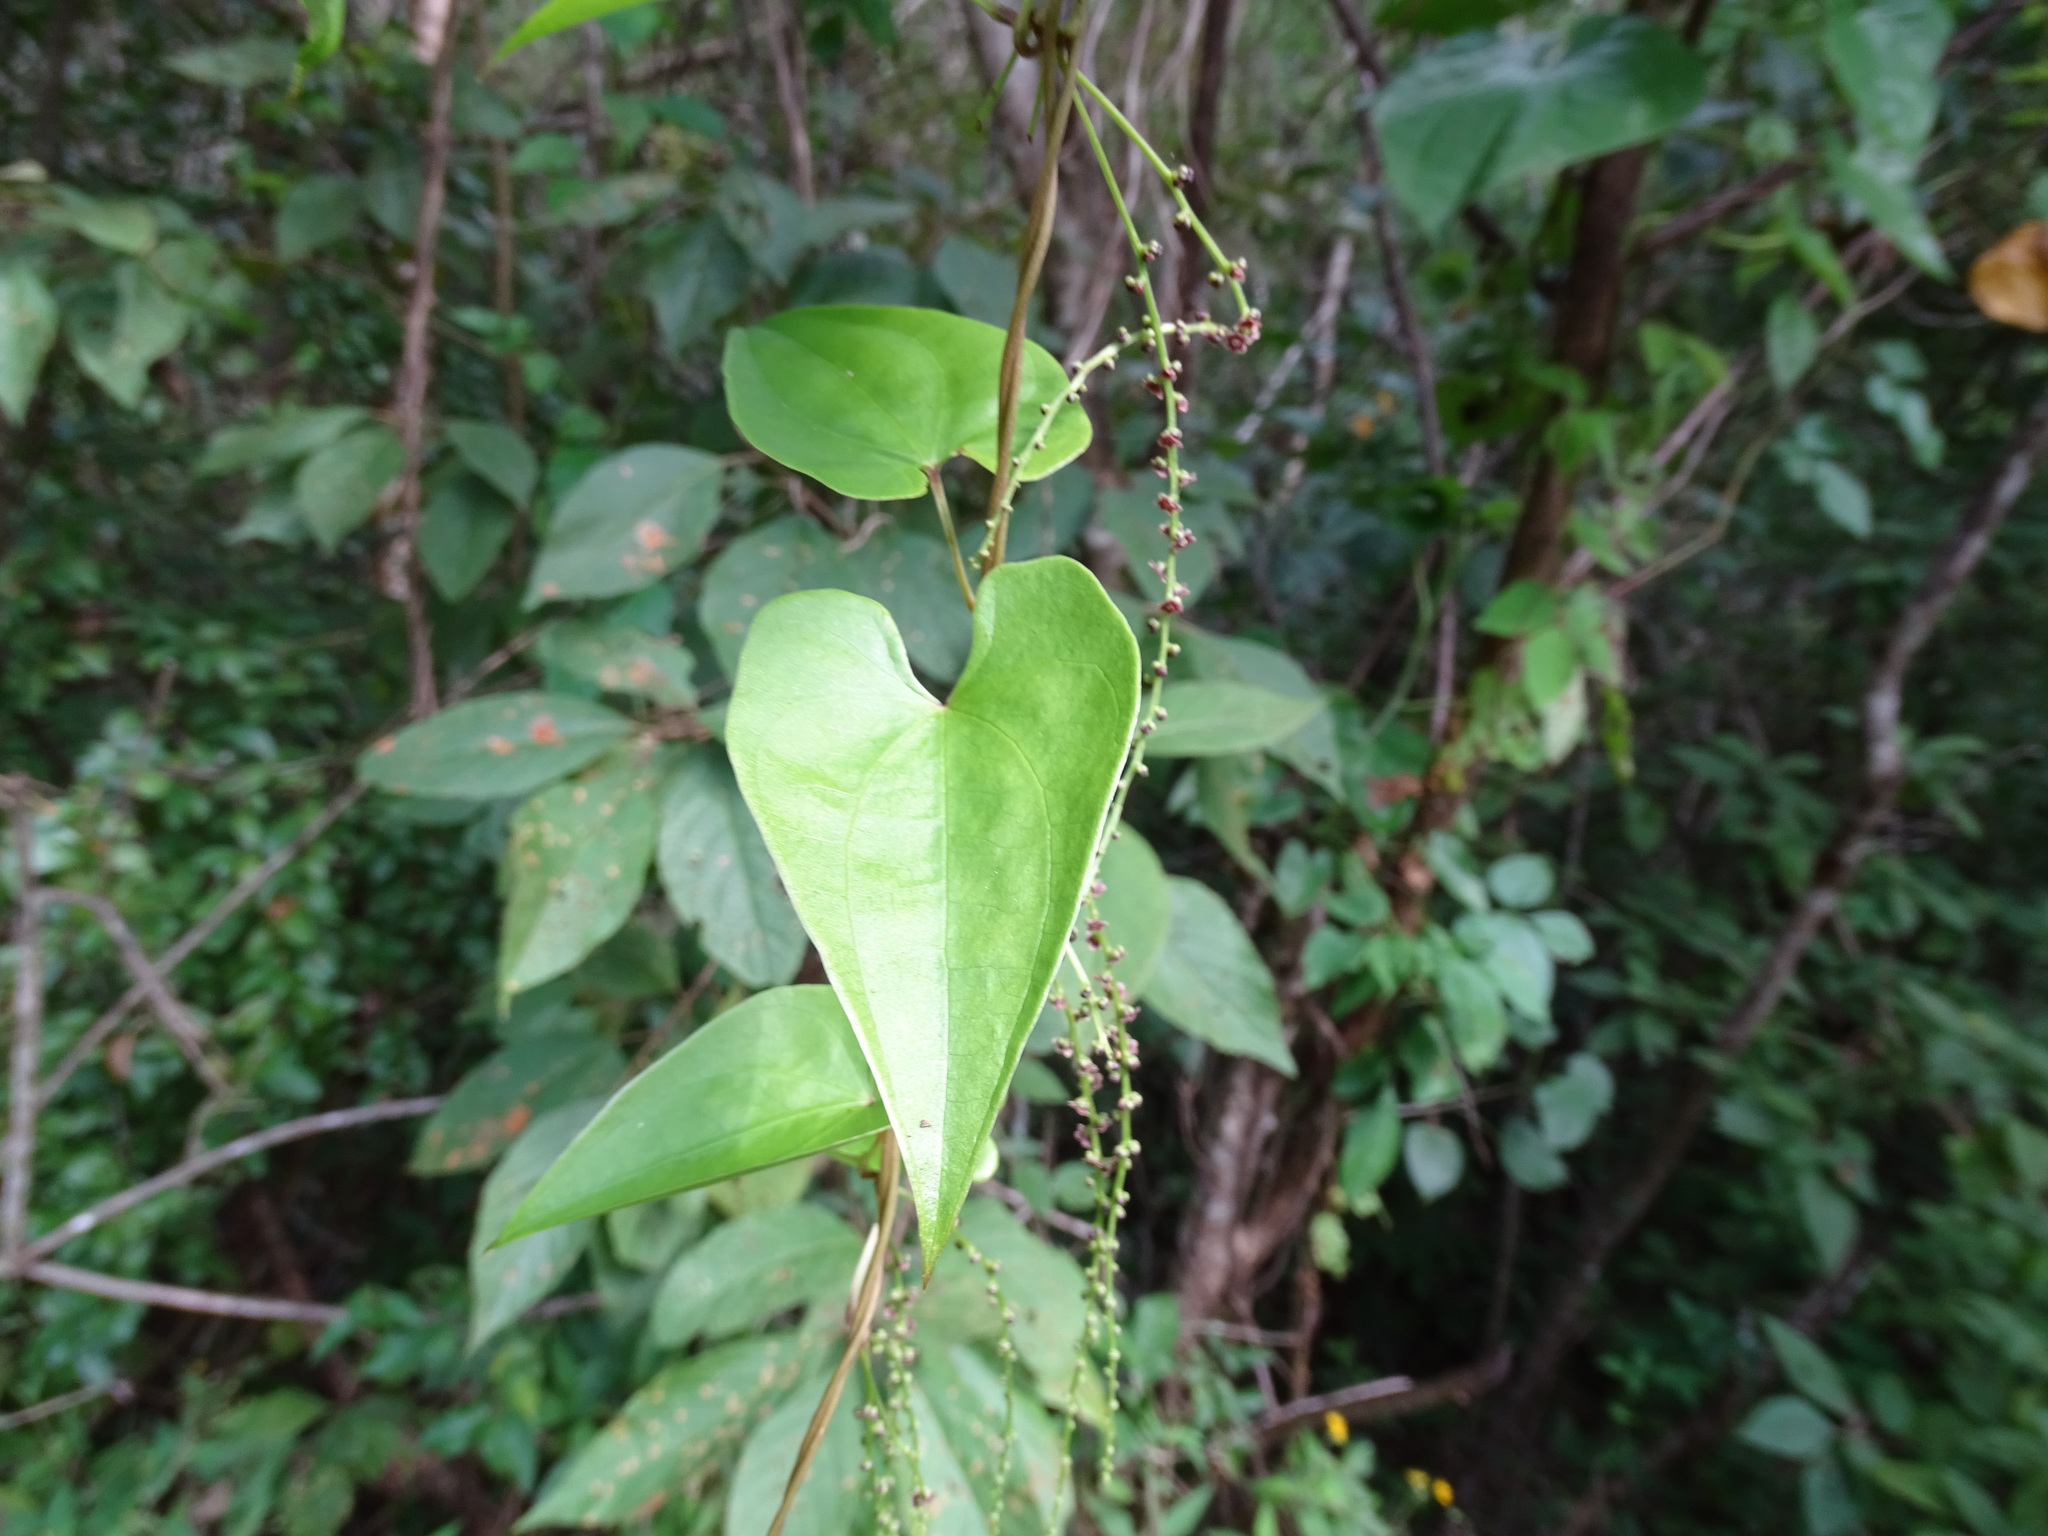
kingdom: Plantae
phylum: Tracheophyta
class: Liliopsida
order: Dioscoreales
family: Dioscoreaceae
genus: Dioscorea
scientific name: Dioscorea floribunda
